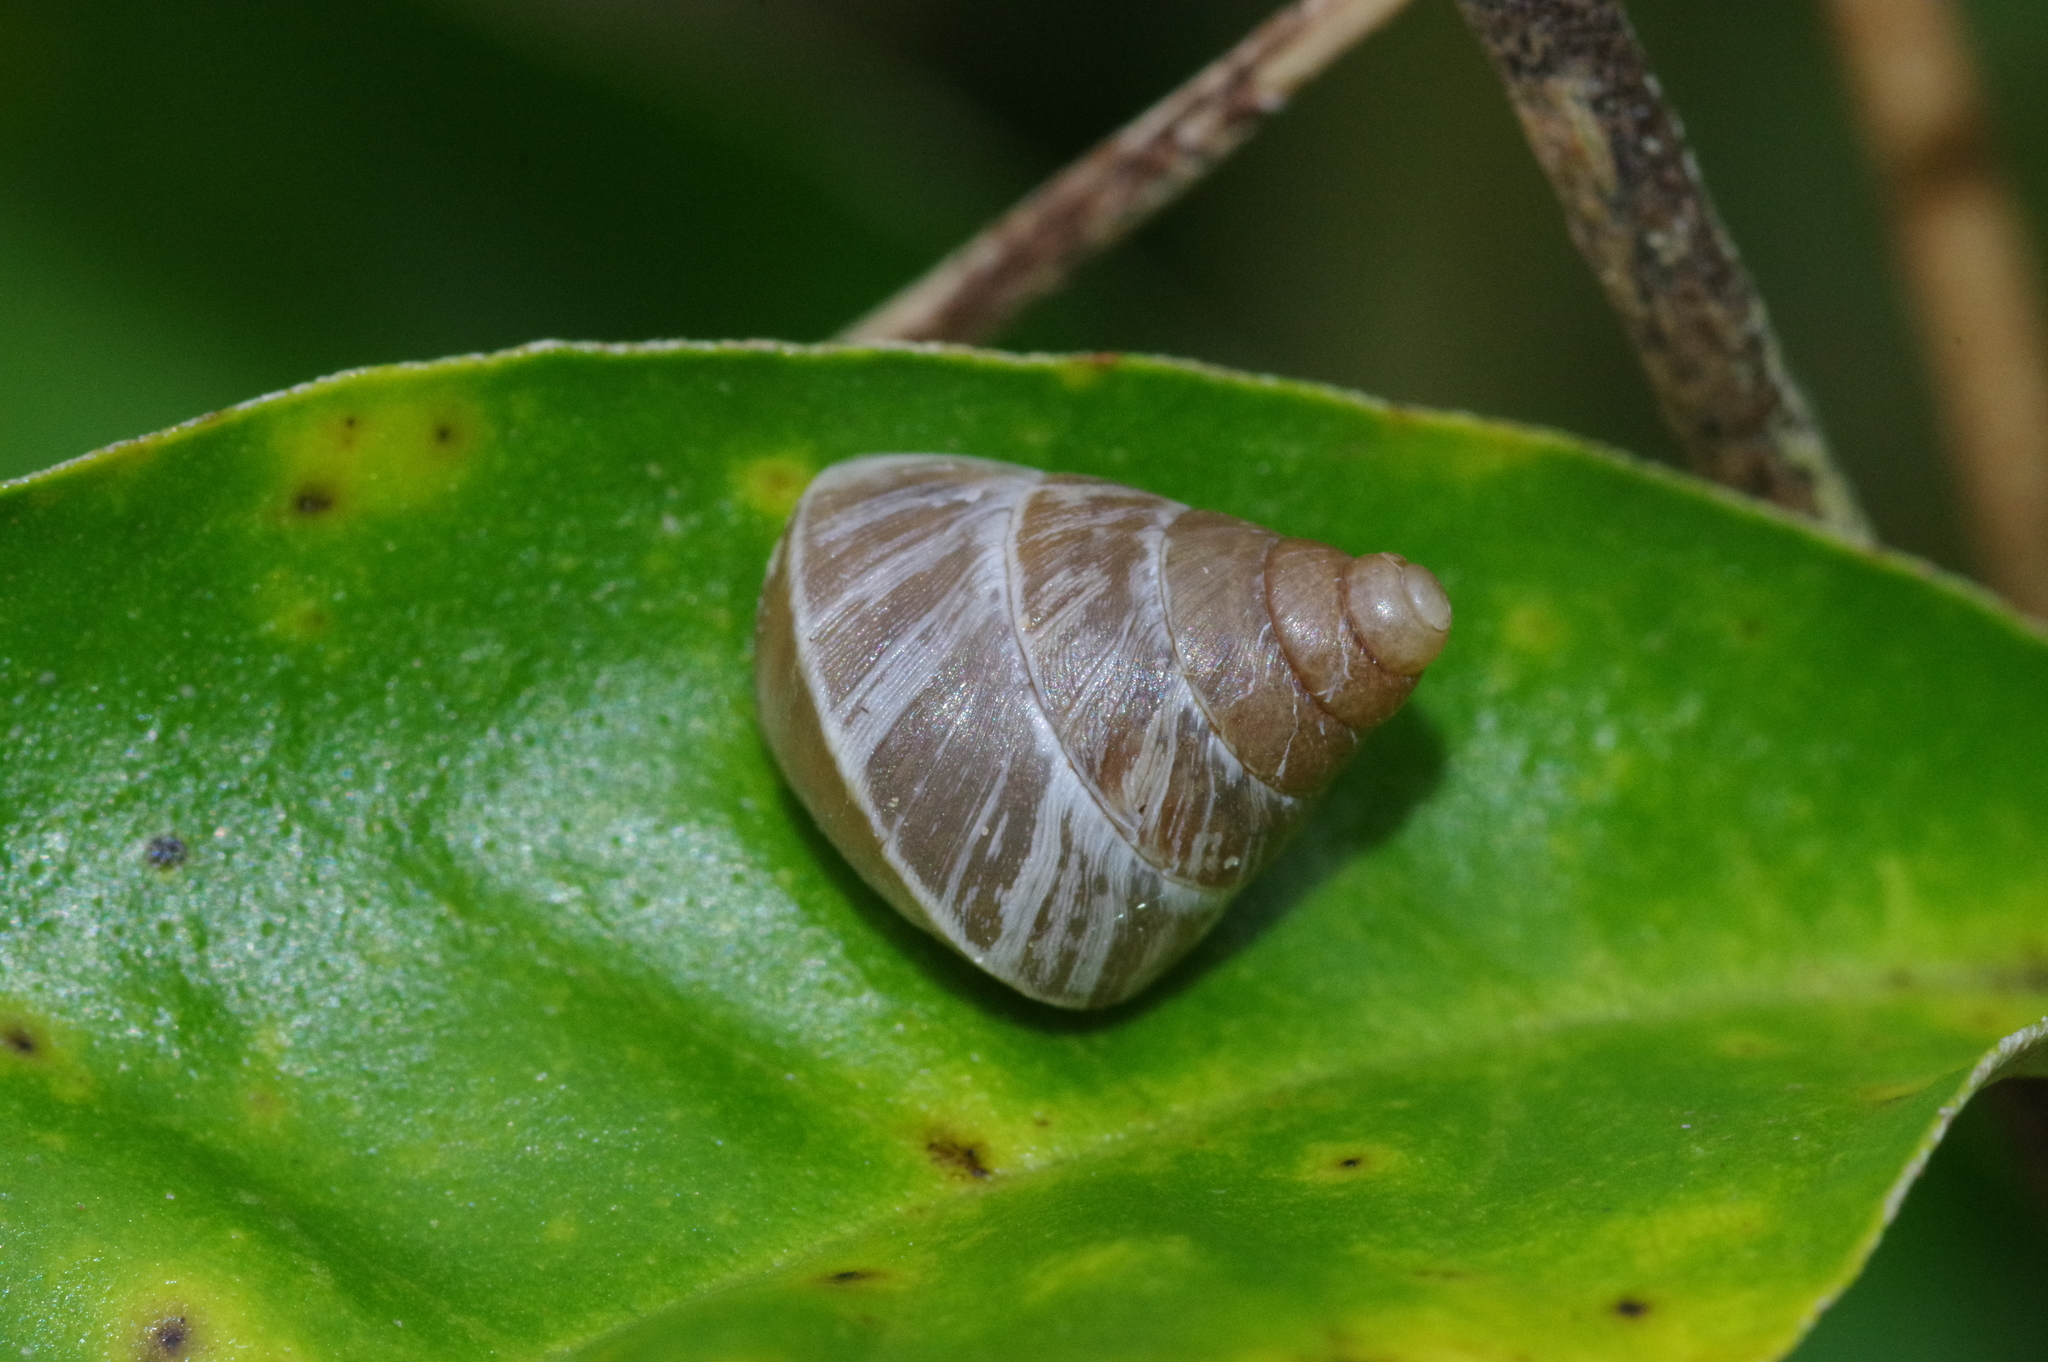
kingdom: Animalia
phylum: Mollusca
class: Gastropoda
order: Stylommatophora
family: Enidae
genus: Luchuena
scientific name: Luchuena reticulata
